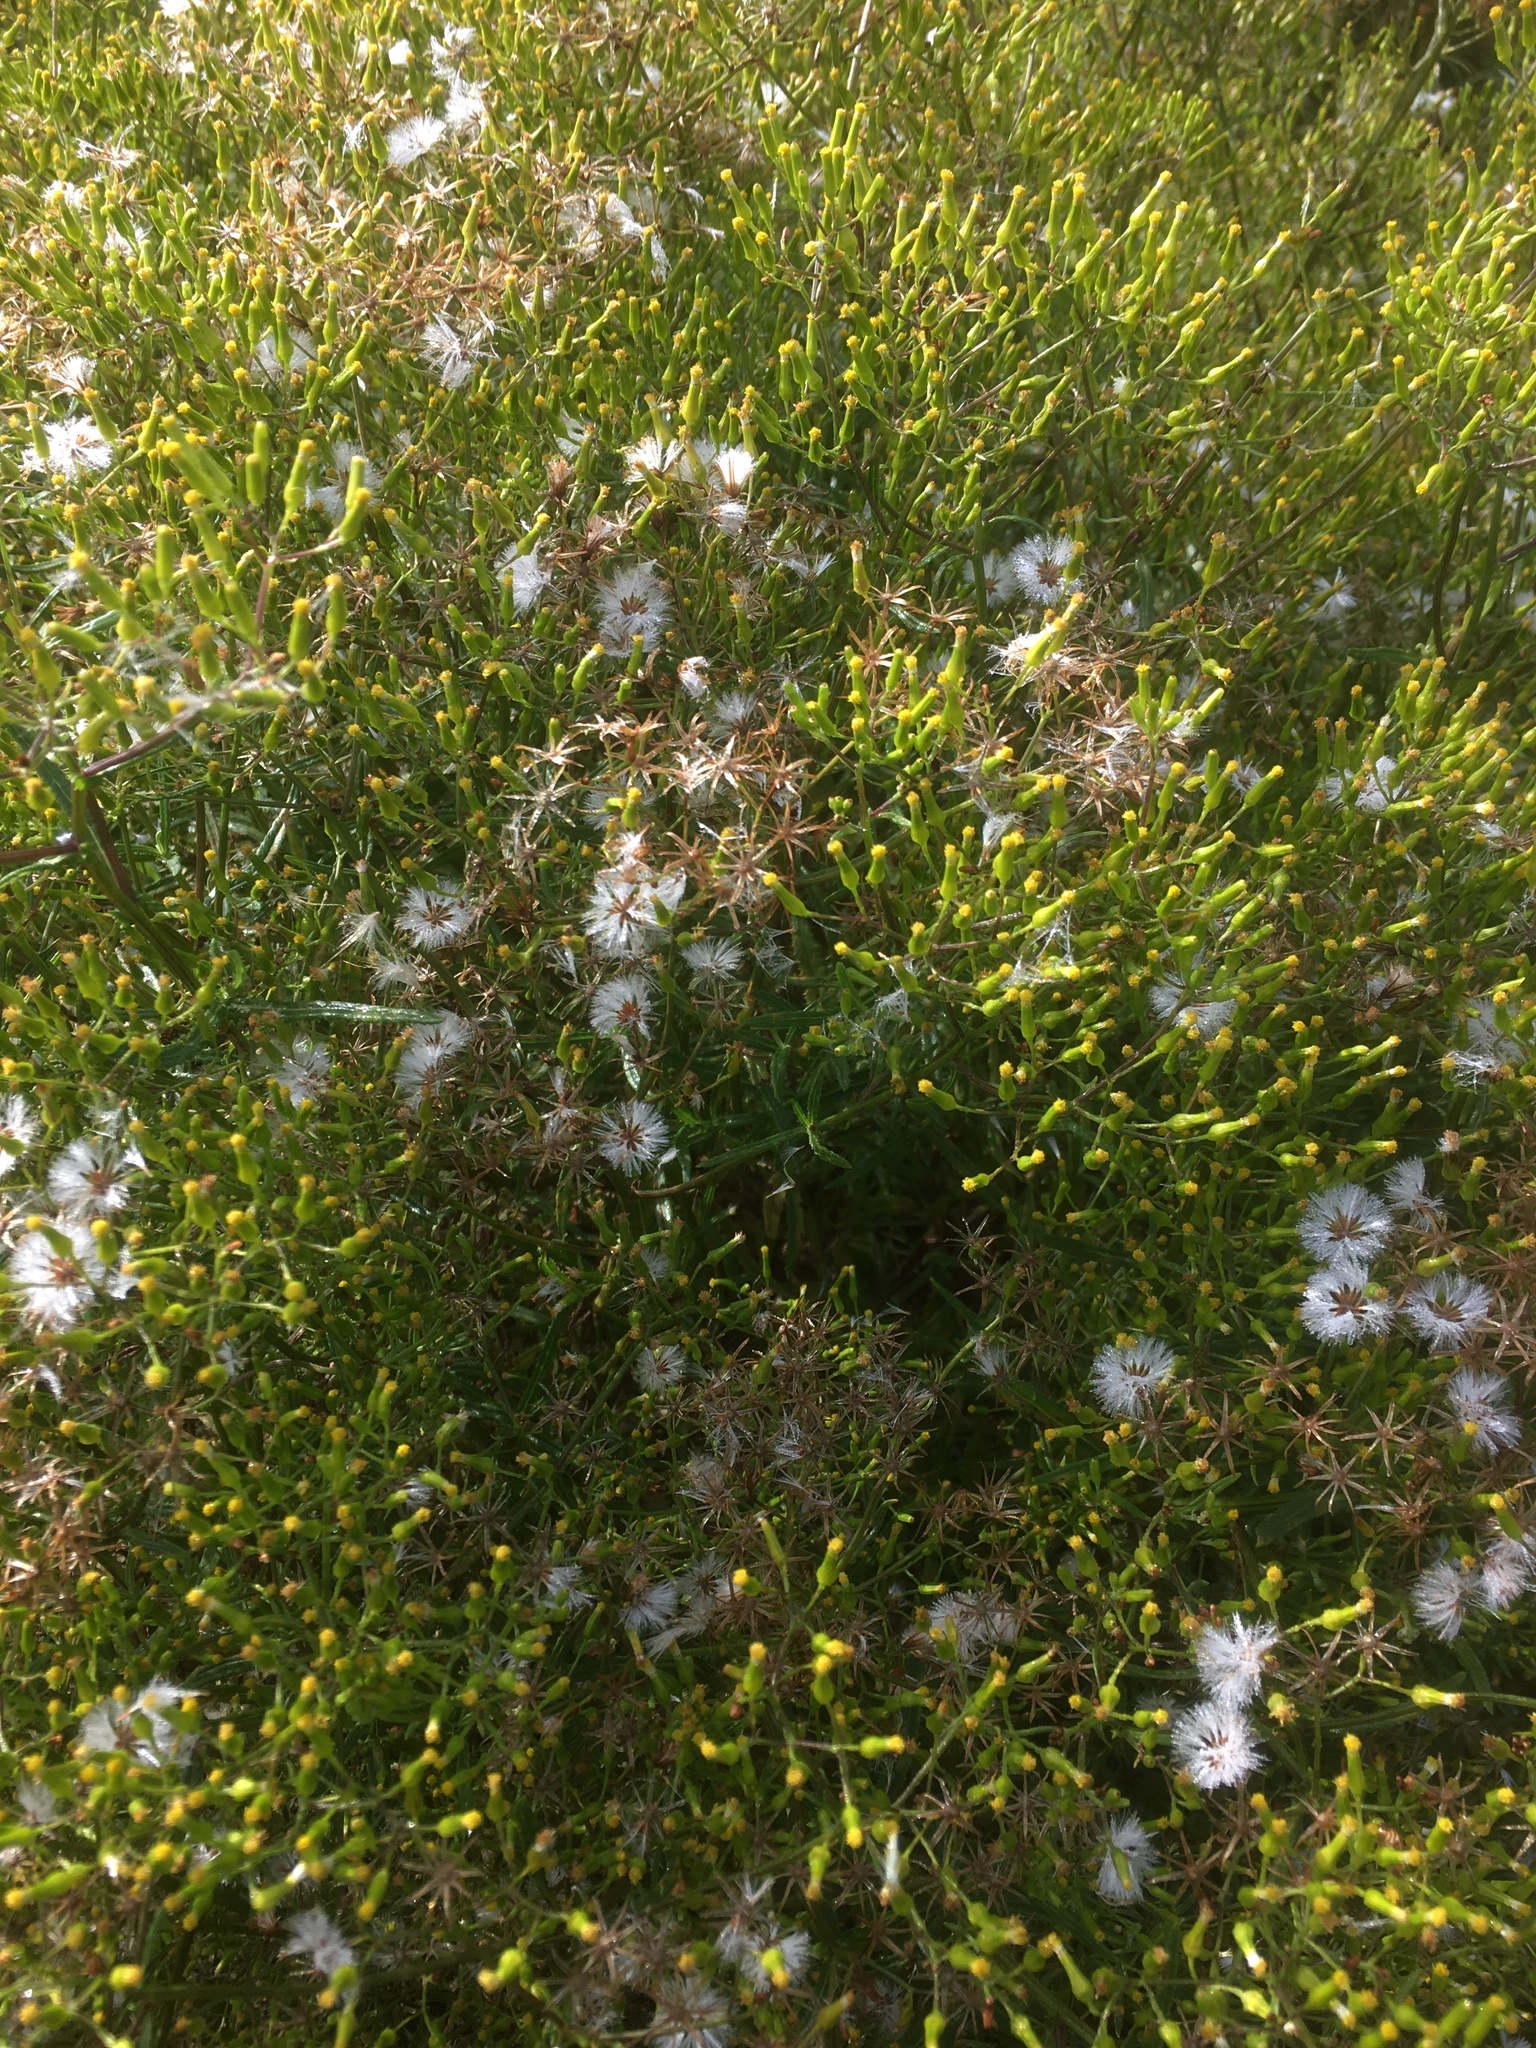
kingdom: Plantae
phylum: Tracheophyta
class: Magnoliopsida
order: Asterales
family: Asteraceae
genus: Senecio
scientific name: Senecio minimus
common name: Toothed fireweed
